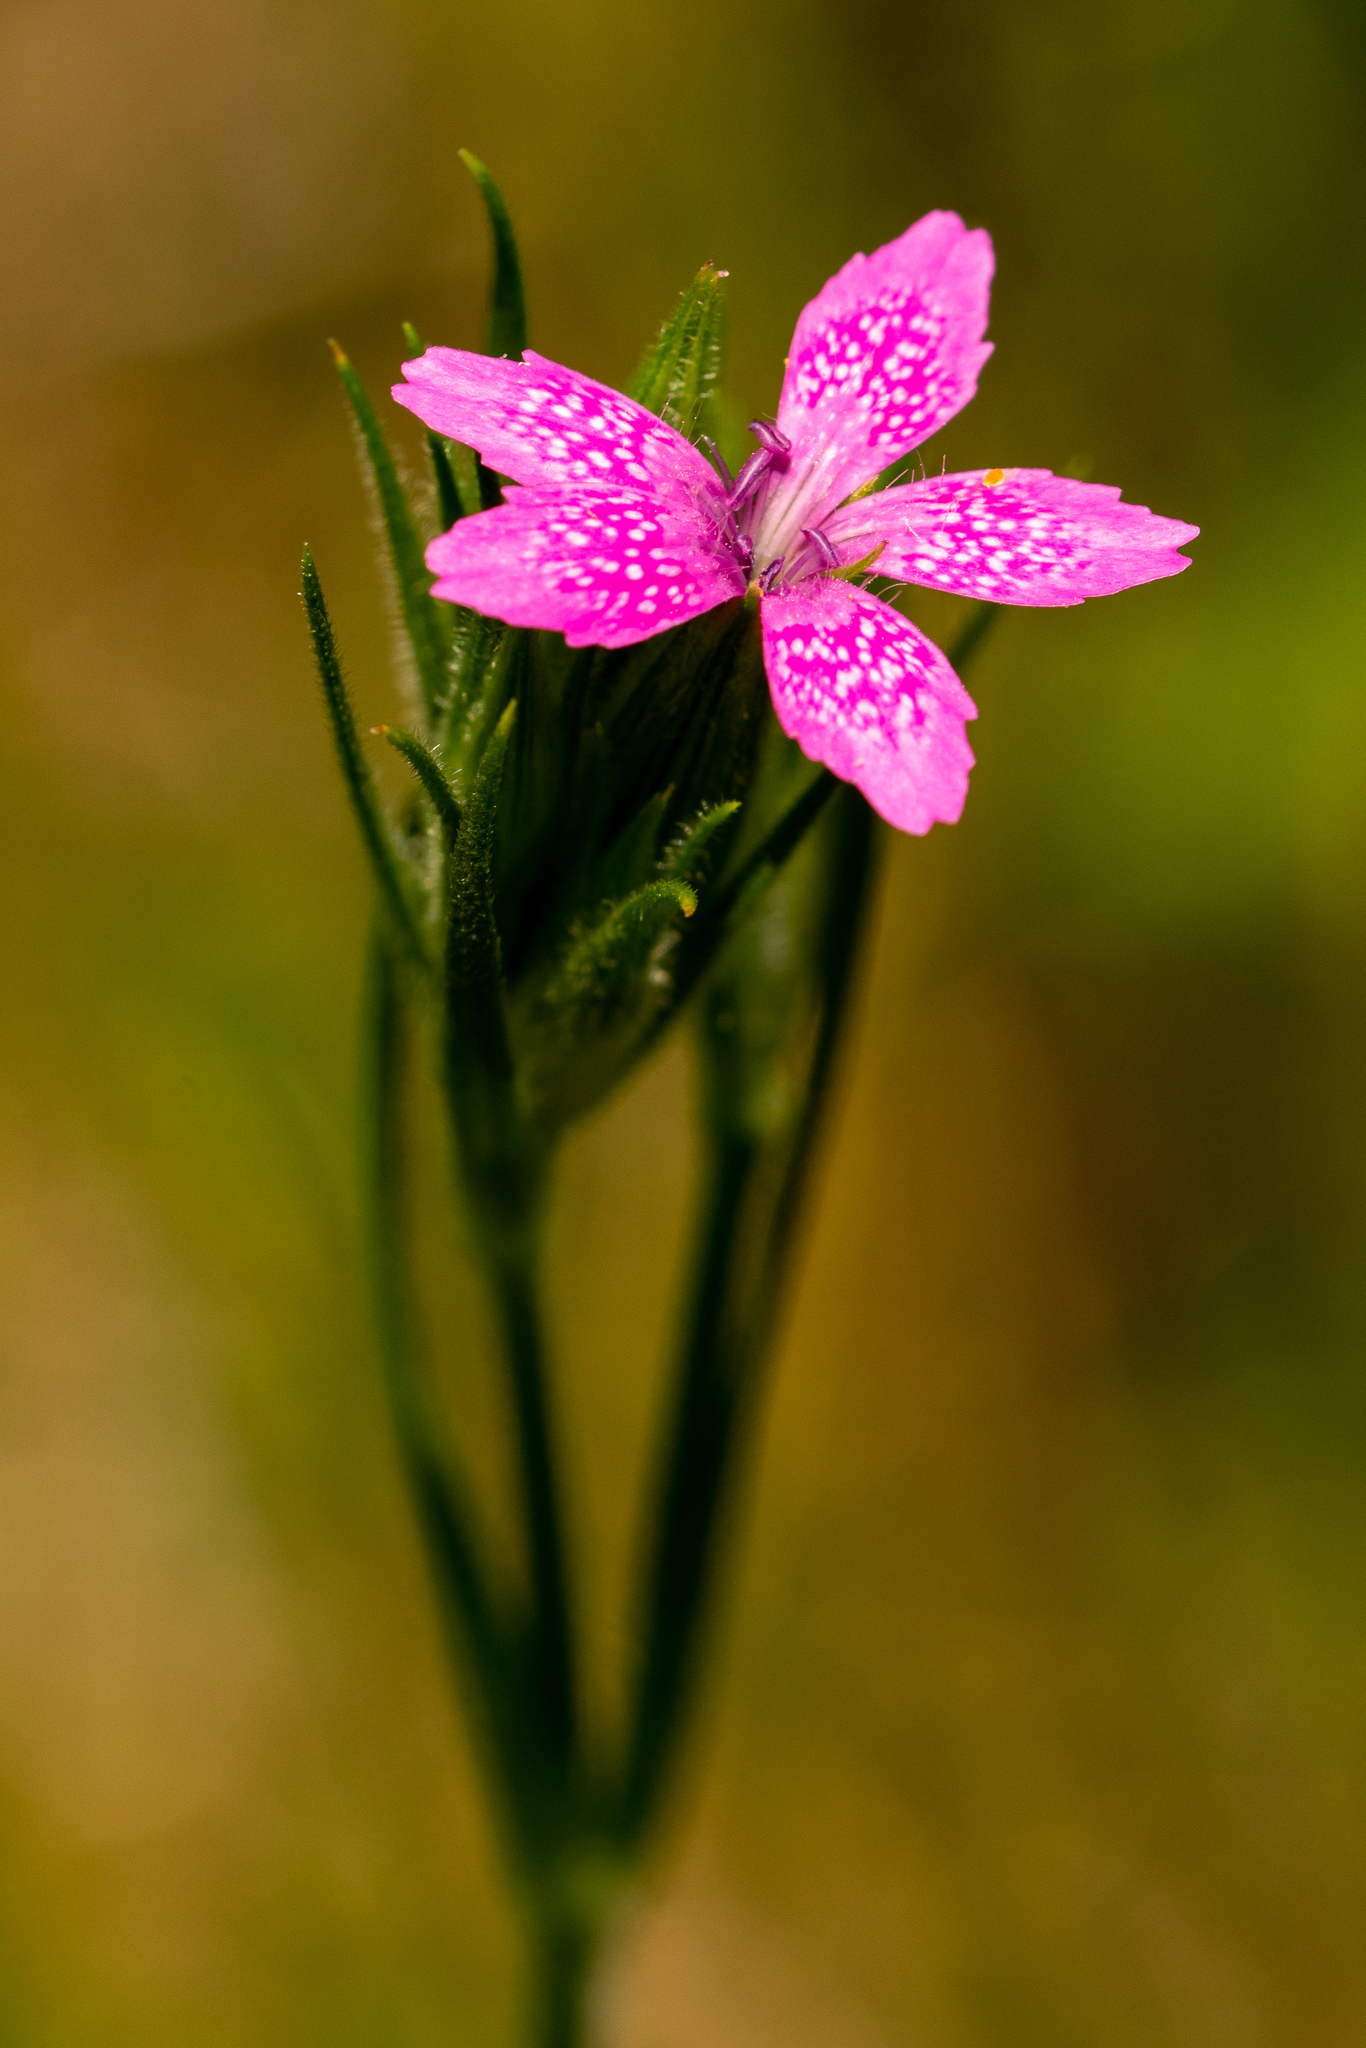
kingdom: Plantae
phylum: Tracheophyta
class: Magnoliopsida
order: Caryophyllales
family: Caryophyllaceae
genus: Dianthus
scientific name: Dianthus armeria
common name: Deptford pink
